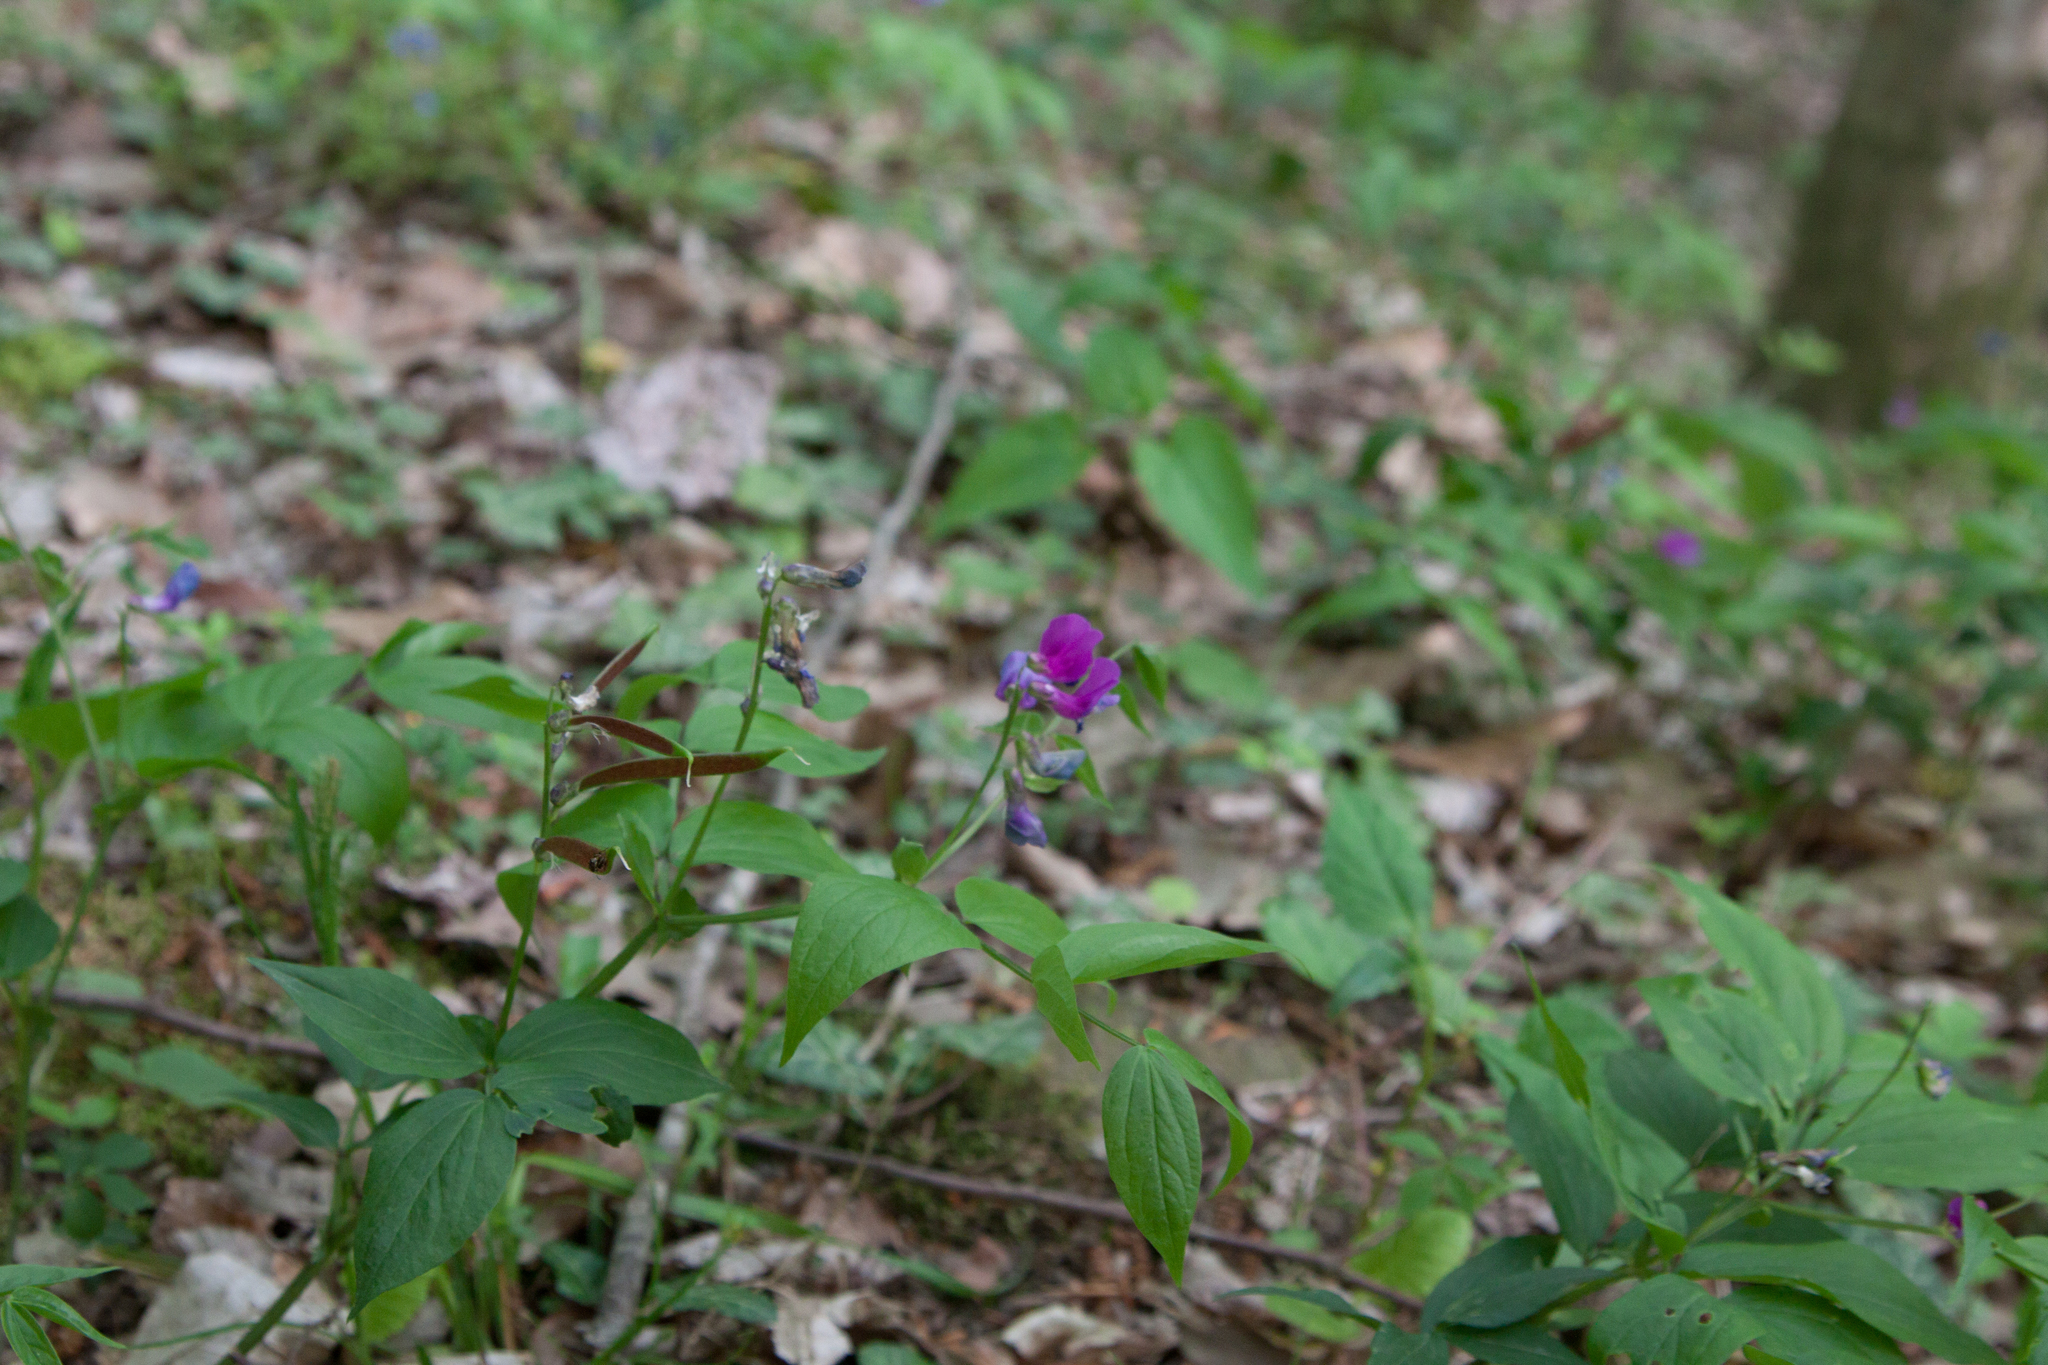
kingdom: Plantae
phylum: Tracheophyta
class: Magnoliopsida
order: Fabales
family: Fabaceae
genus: Lathyrus
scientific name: Lathyrus vernus
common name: Spring pea
